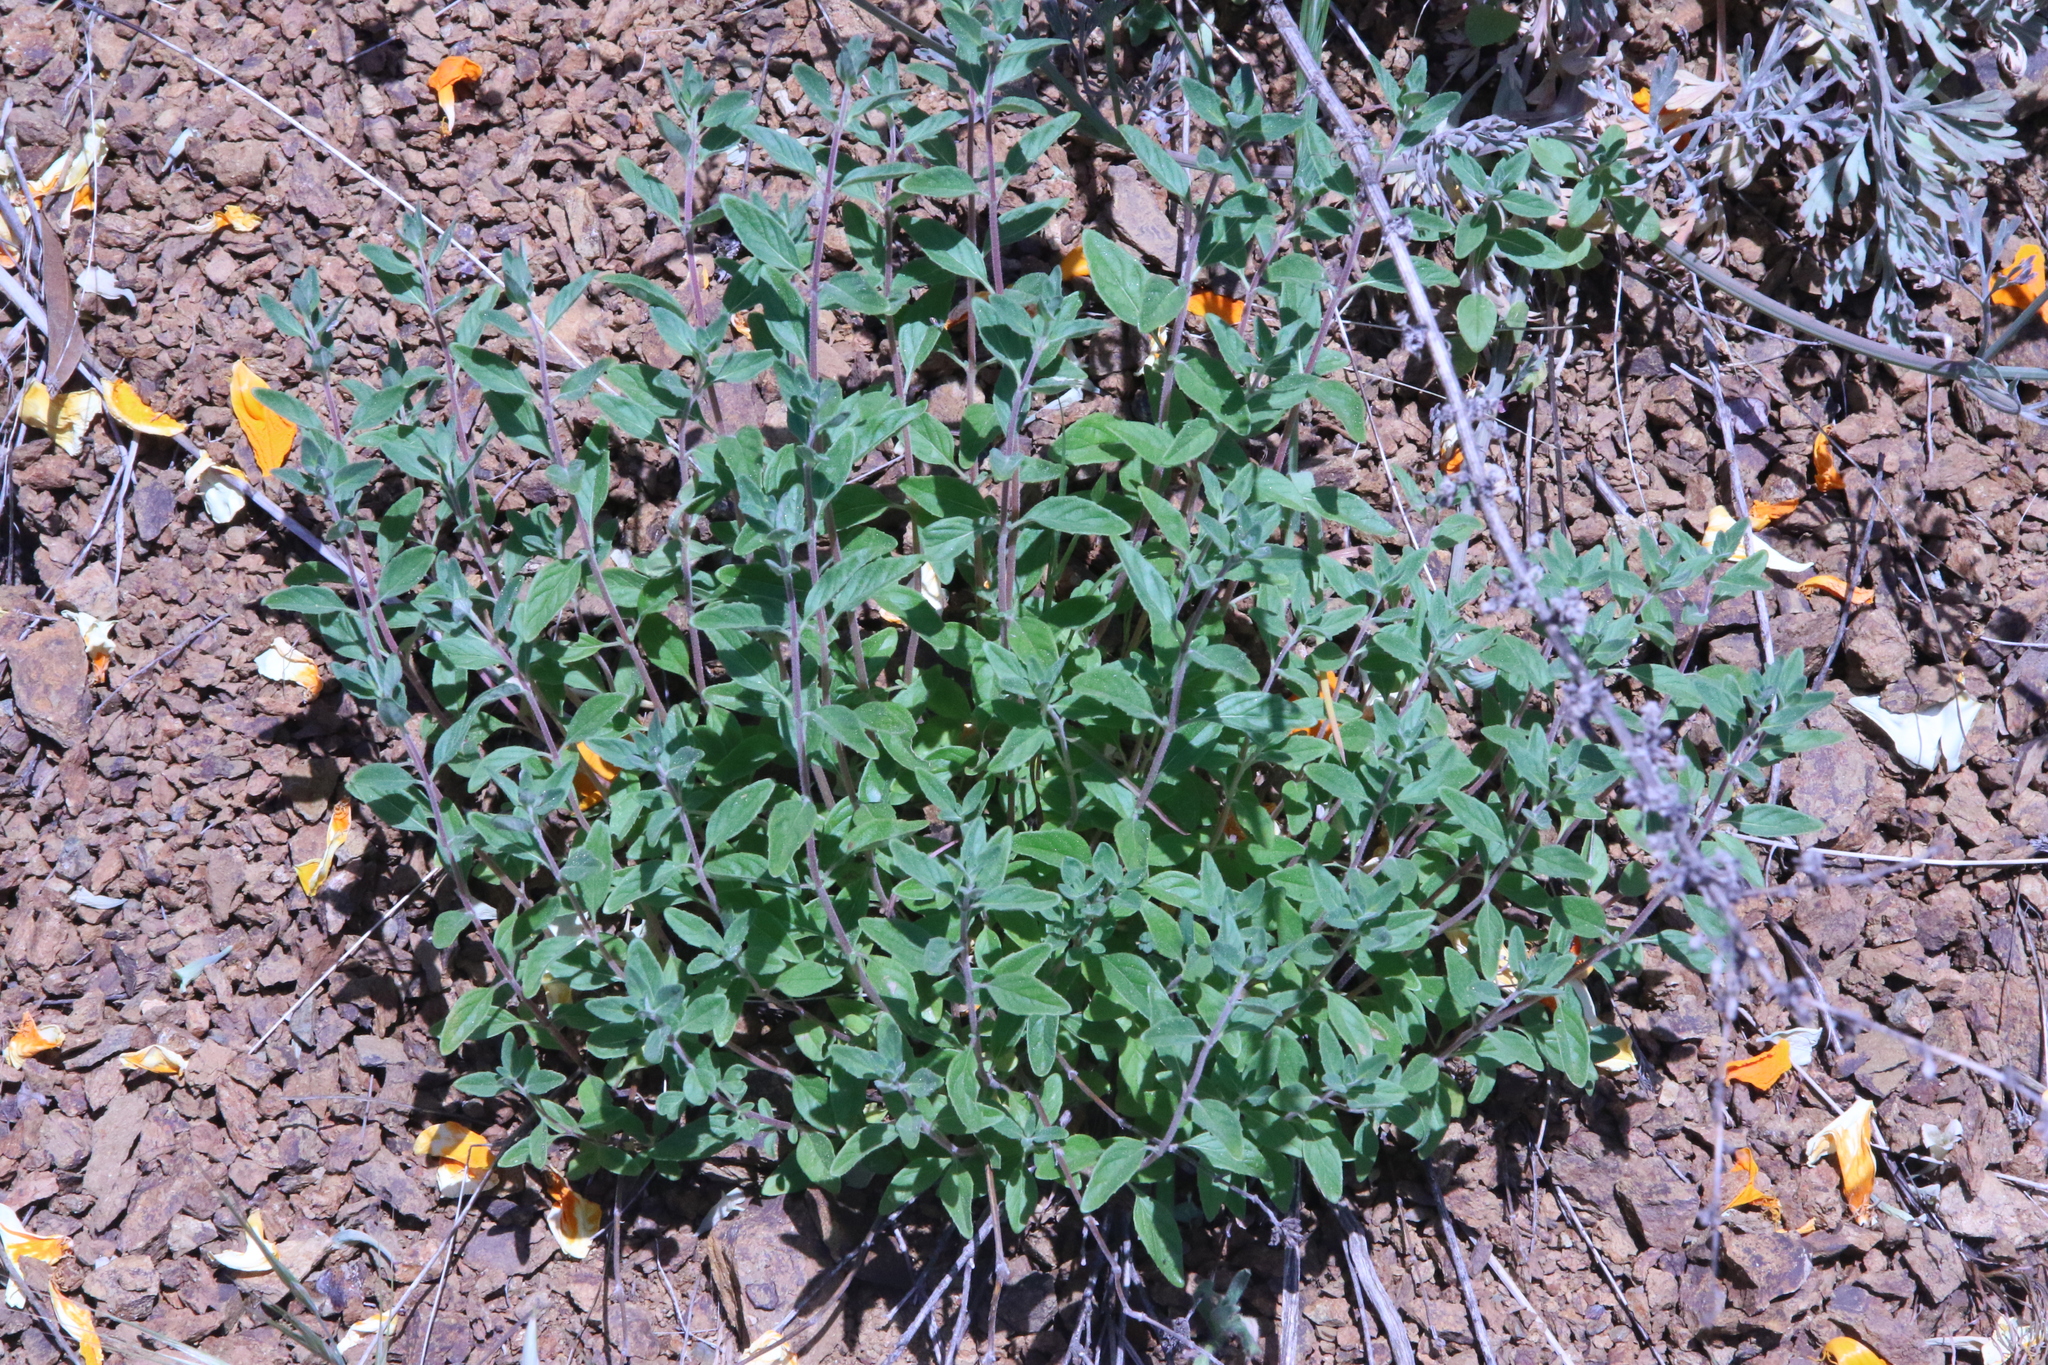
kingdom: Plantae
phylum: Tracheophyta
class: Magnoliopsida
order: Lamiales
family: Lamiaceae
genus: Monardella
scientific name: Monardella odoratissima
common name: Pacific monardella
